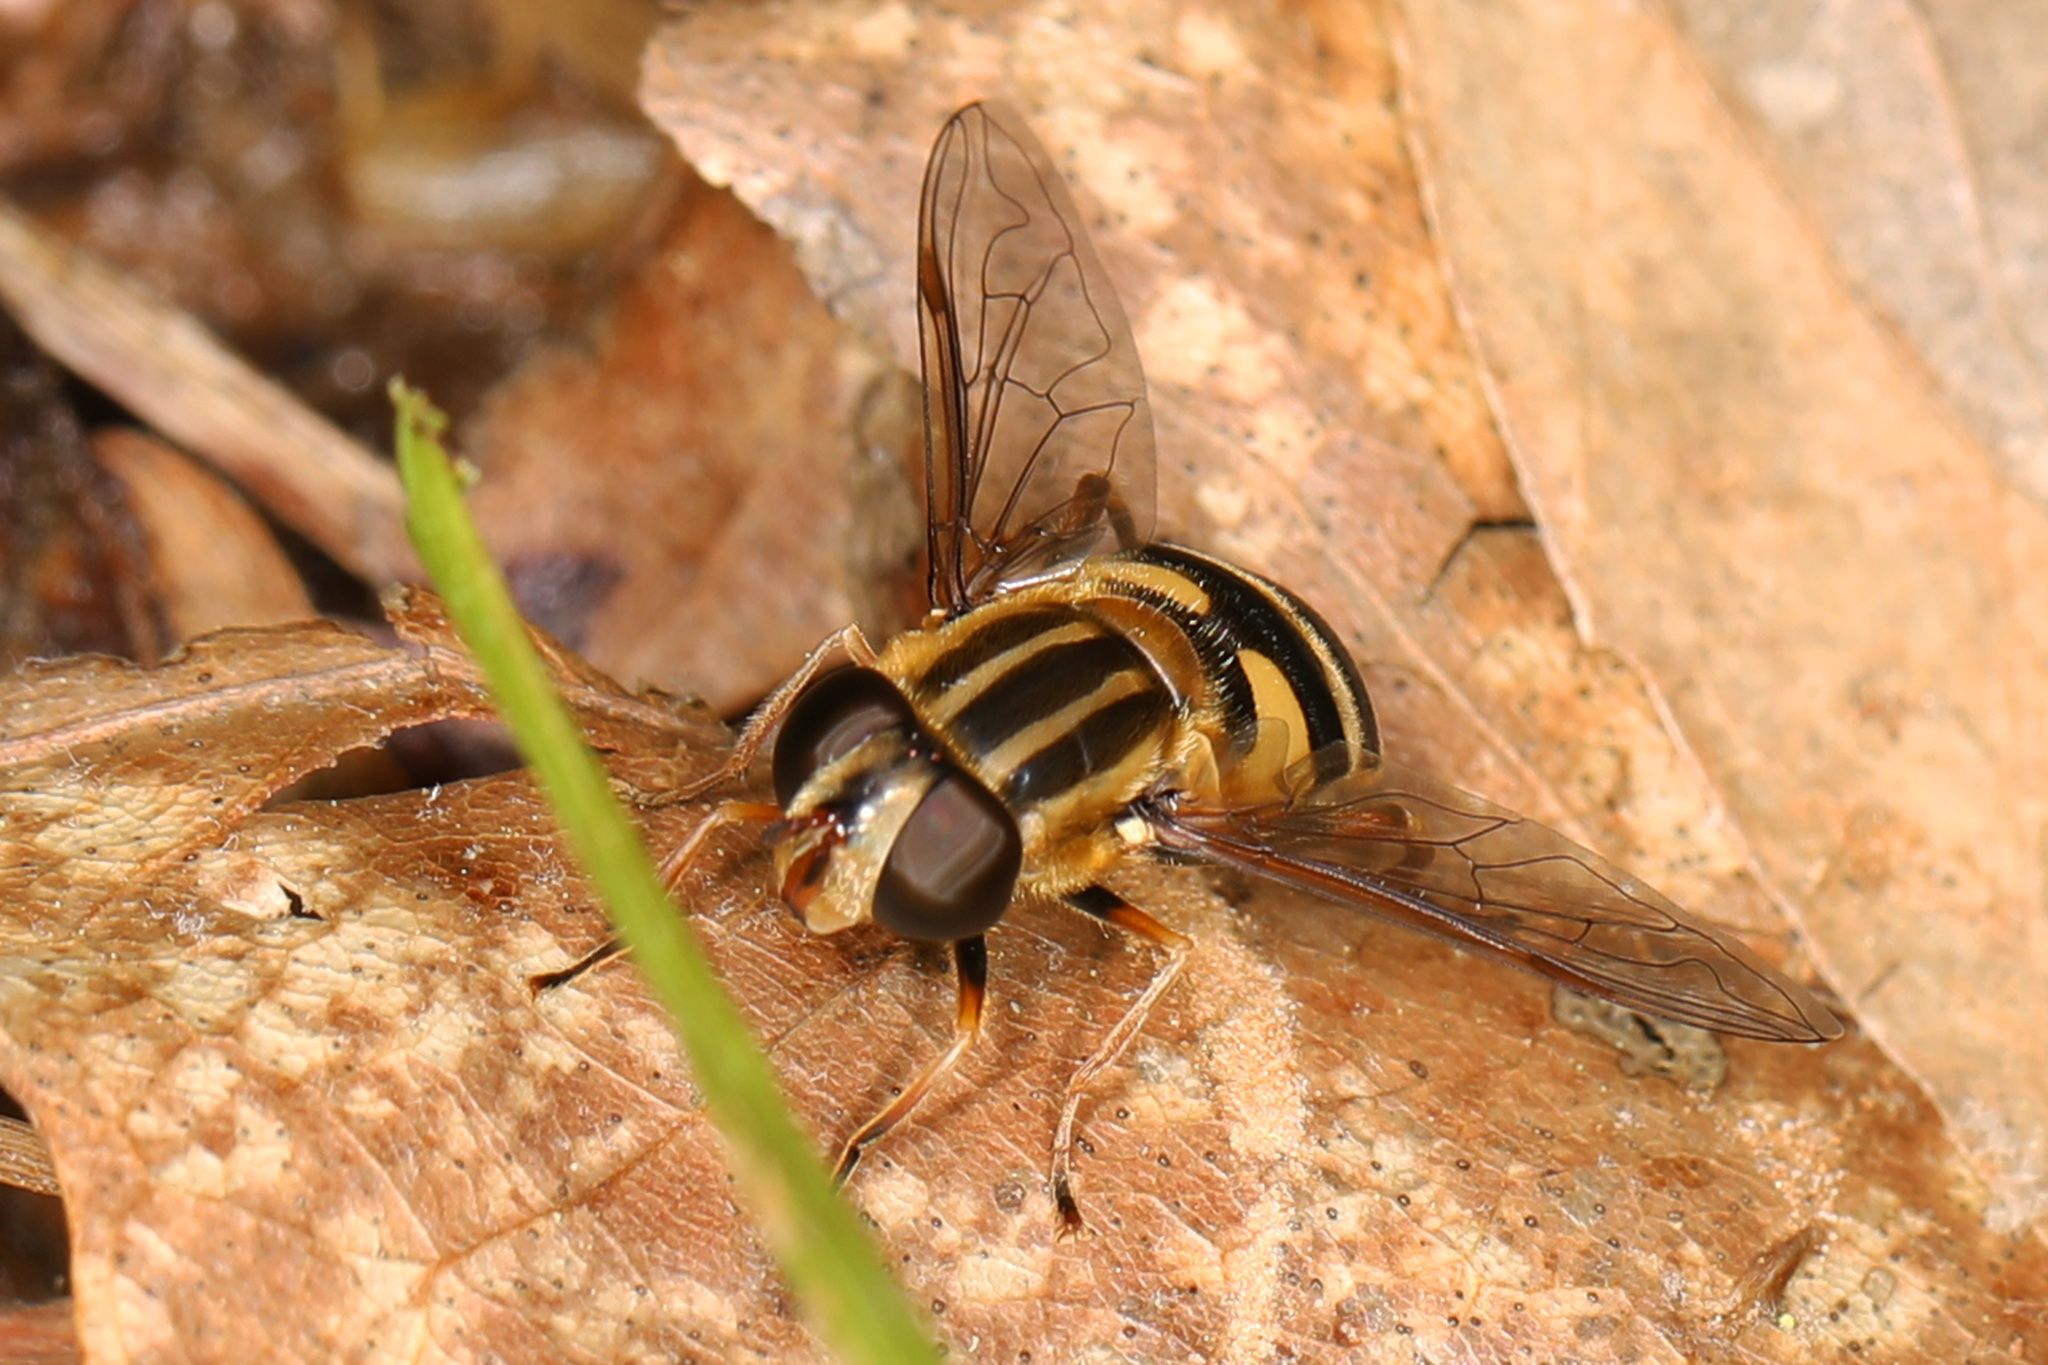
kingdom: Animalia
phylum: Arthropoda
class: Insecta
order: Diptera
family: Syrphidae
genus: Helophilus
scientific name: Helophilus fasciatus
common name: Narrow-headed marsh fly
